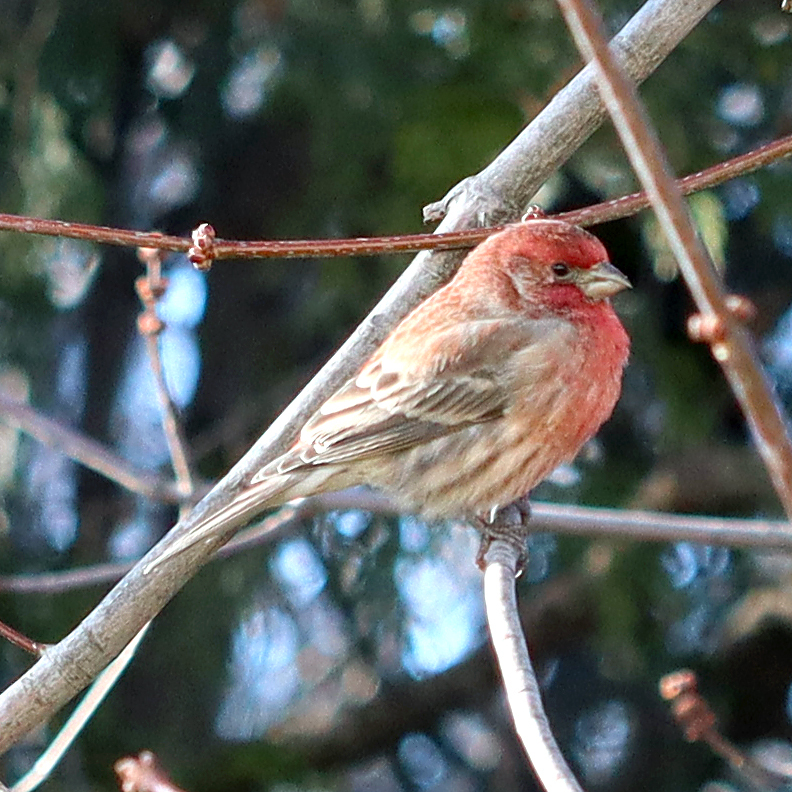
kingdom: Animalia
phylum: Chordata
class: Aves
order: Passeriformes
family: Fringillidae
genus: Haemorhous
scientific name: Haemorhous mexicanus
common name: House finch
